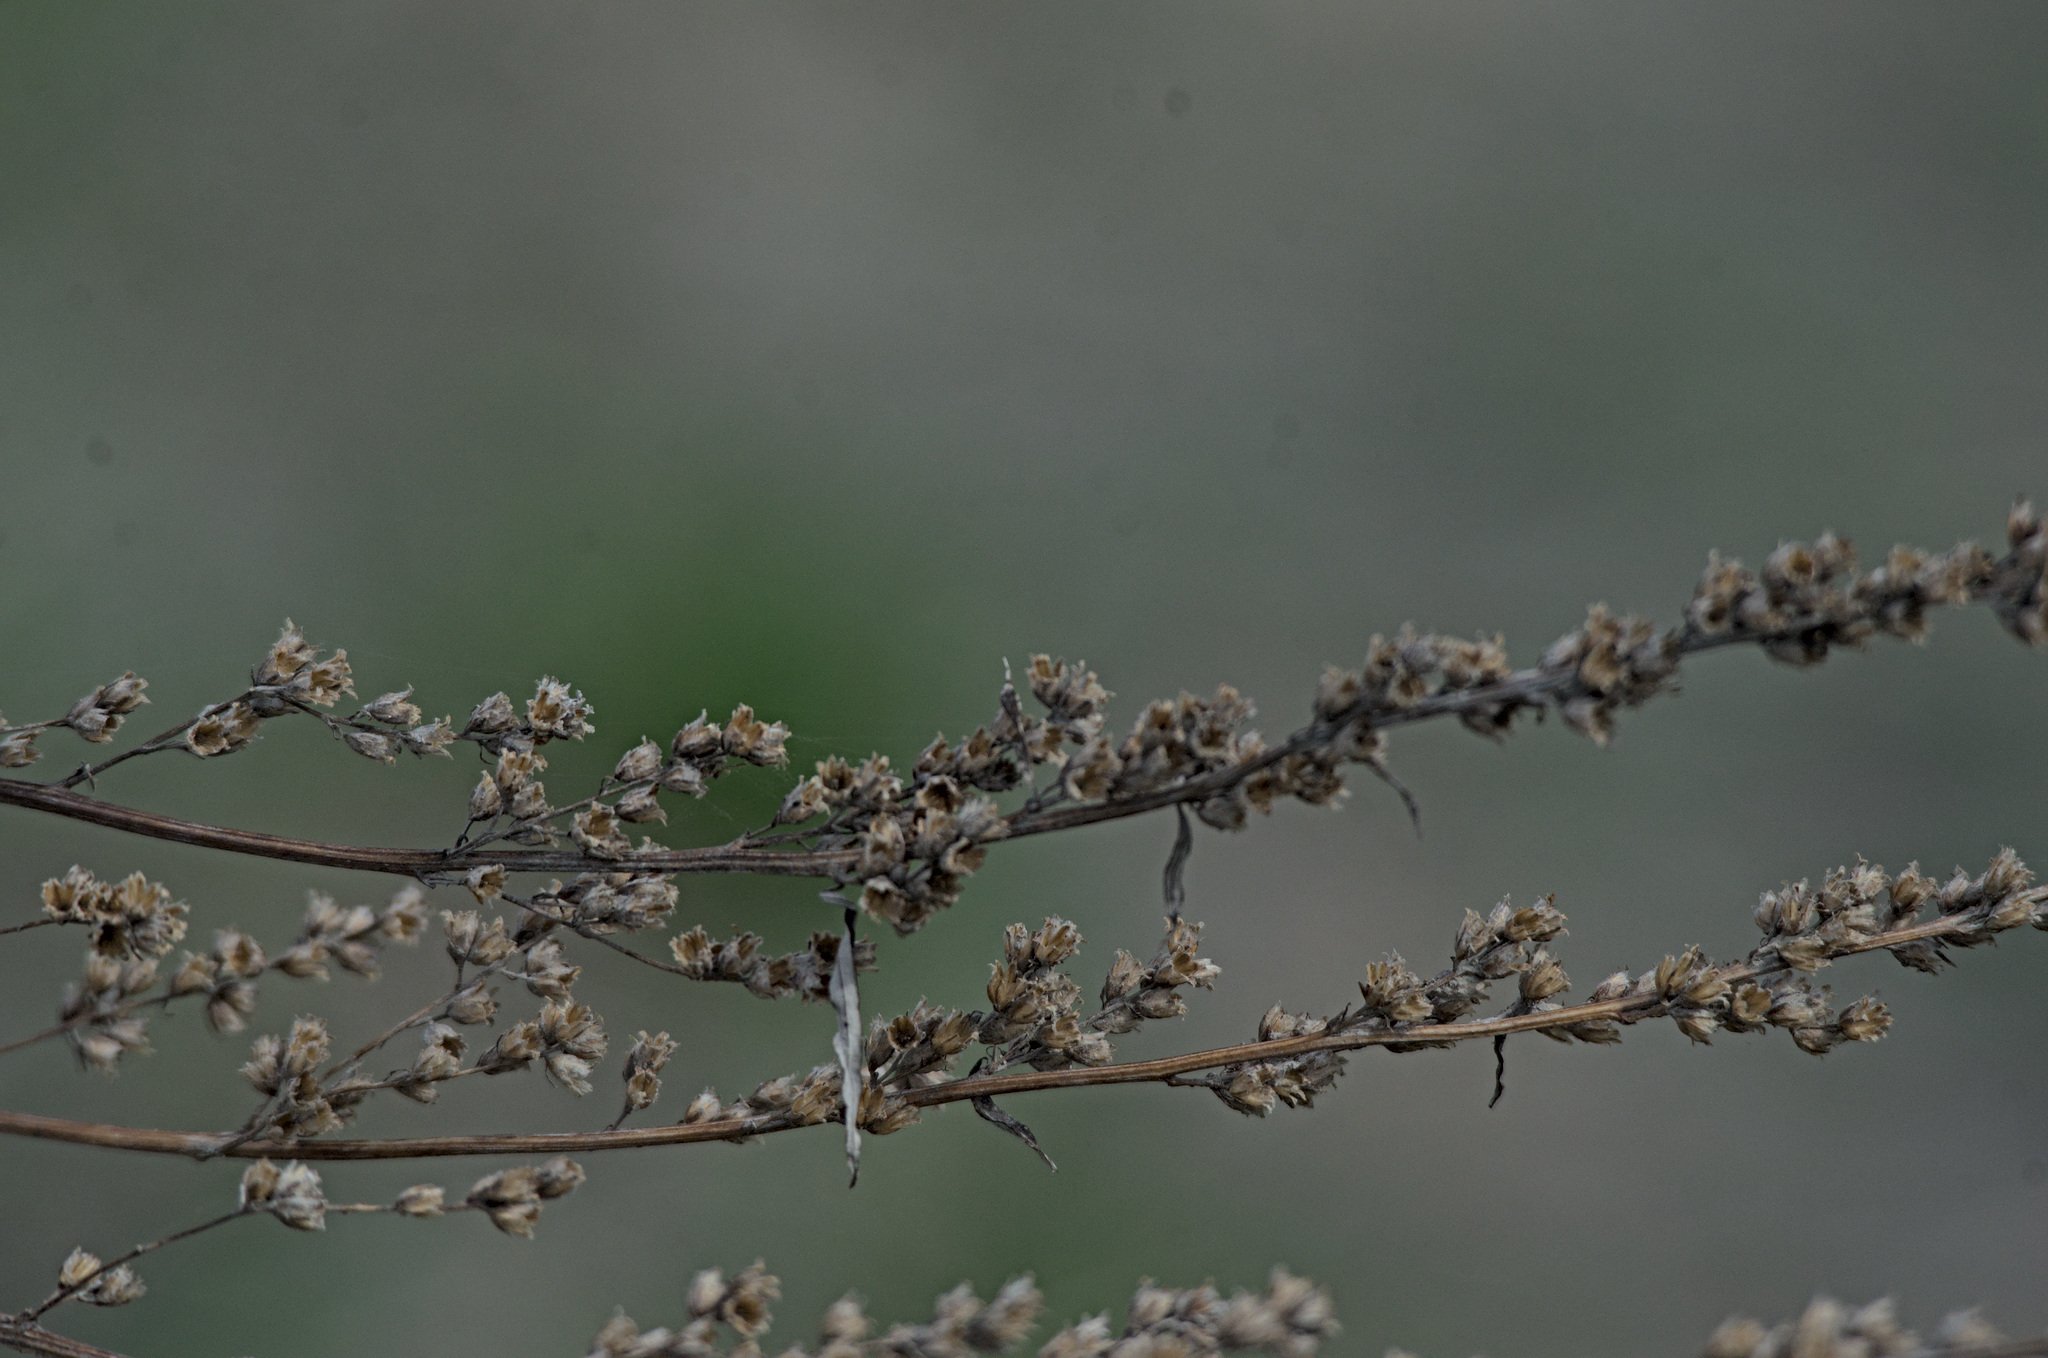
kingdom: Plantae
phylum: Tracheophyta
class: Magnoliopsida
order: Asterales
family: Asteraceae
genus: Artemisia
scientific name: Artemisia vulgaris
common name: Mugwort
